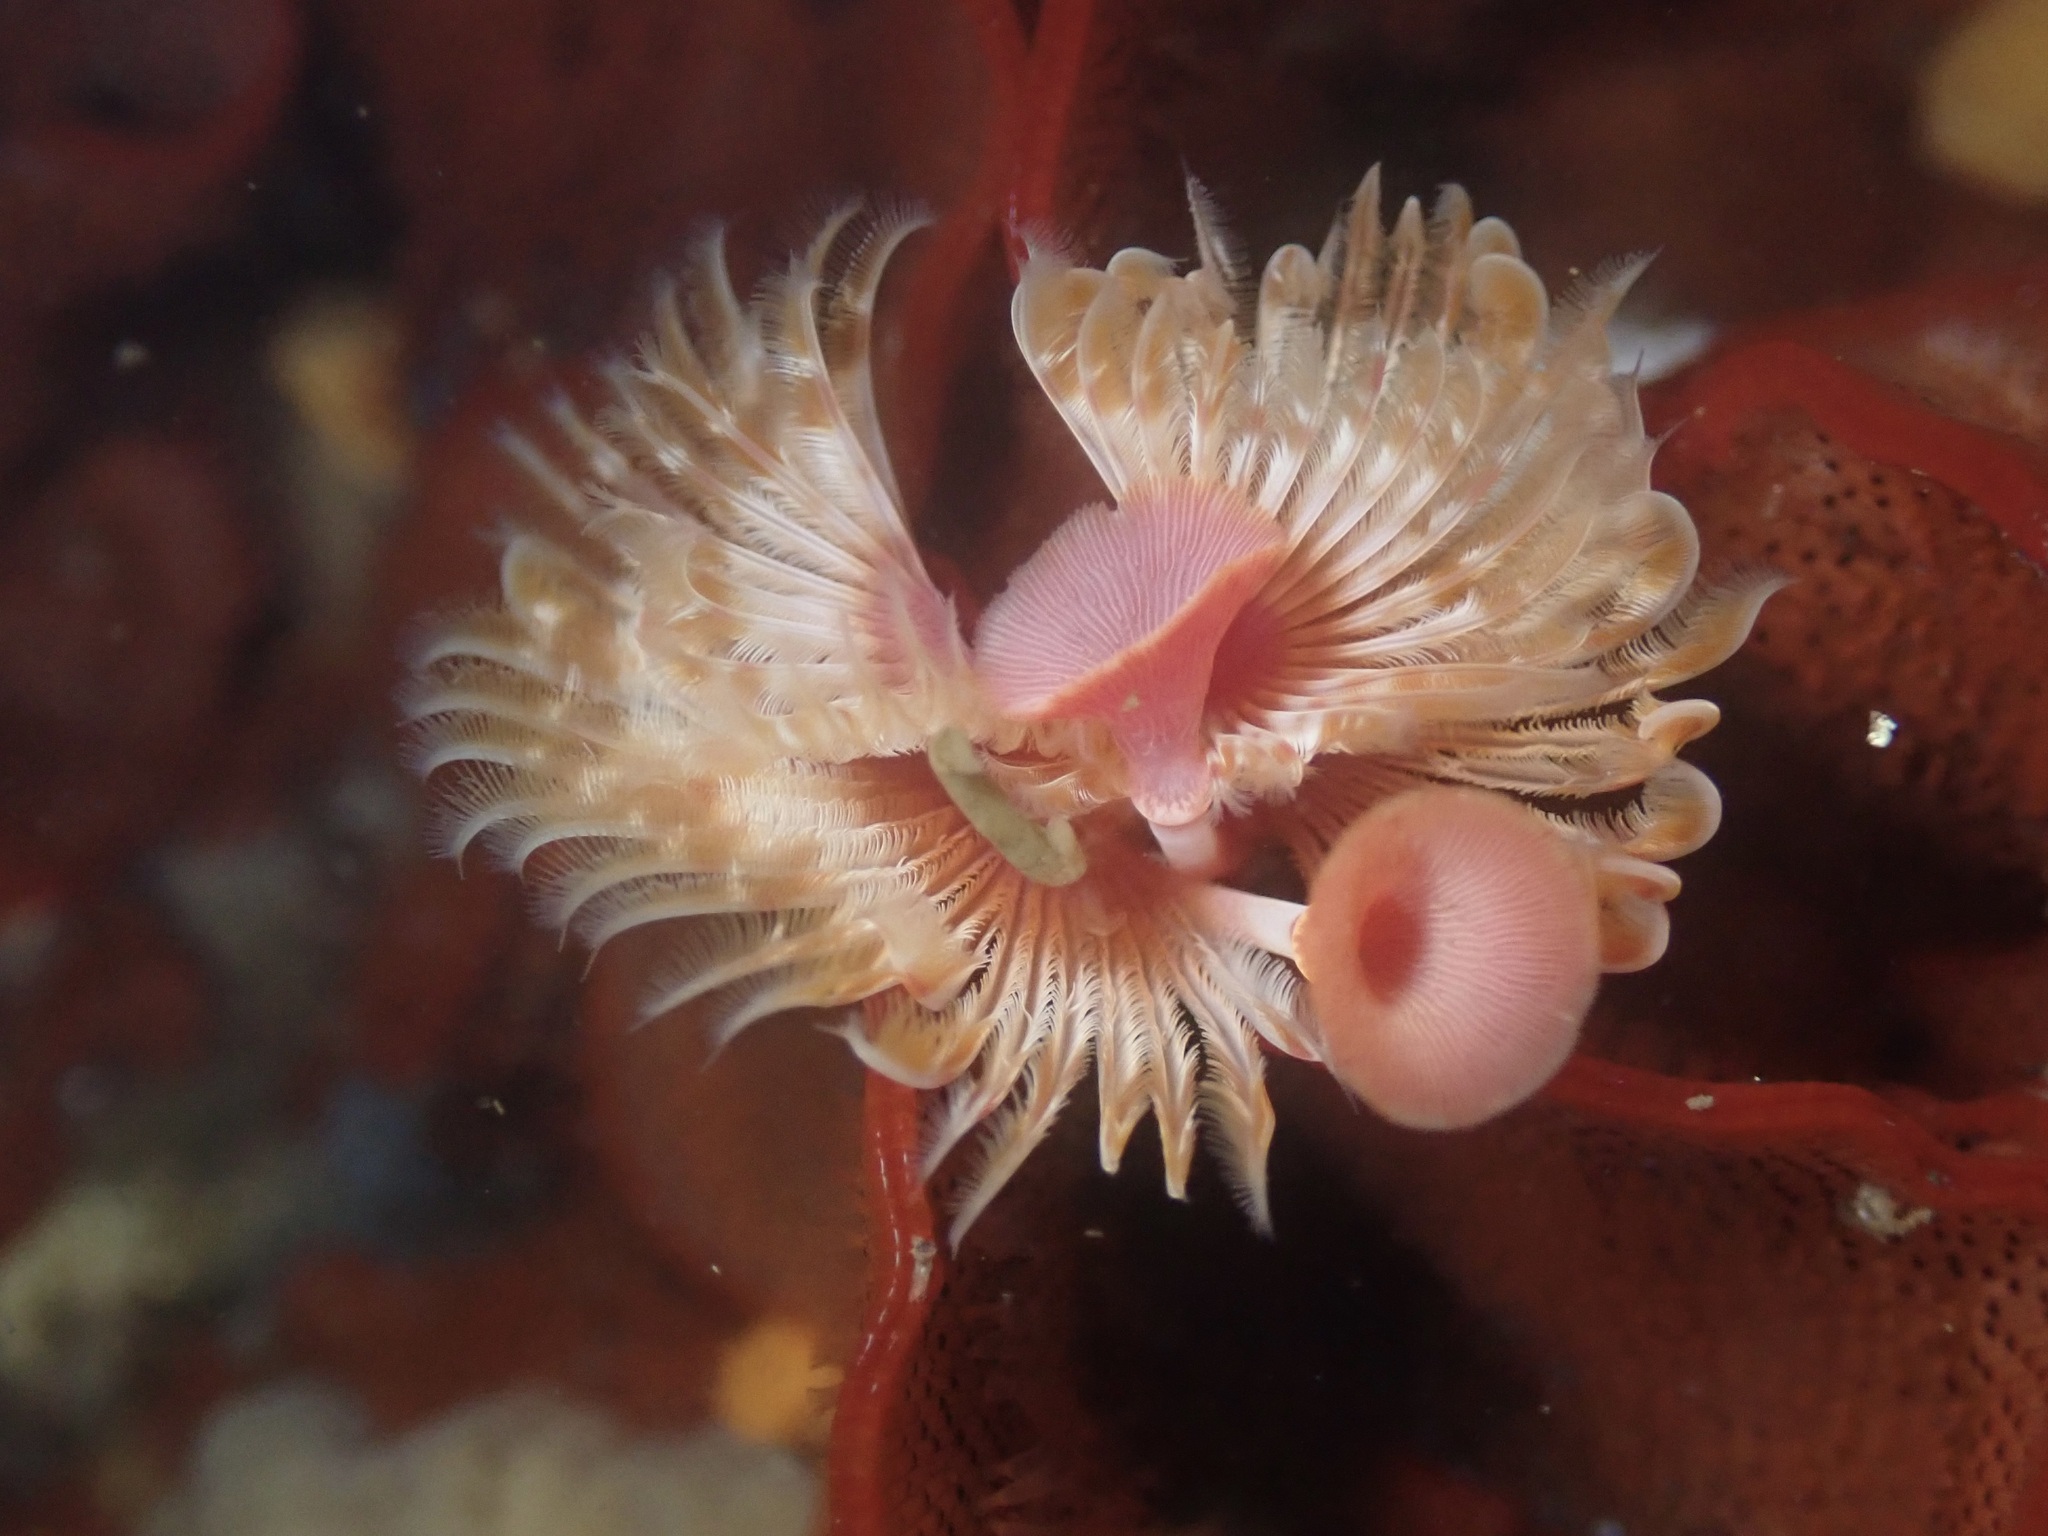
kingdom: Animalia
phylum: Annelida
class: Polychaeta
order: Sabellida
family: Serpulidae
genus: Serpula
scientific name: Serpula columbiana
